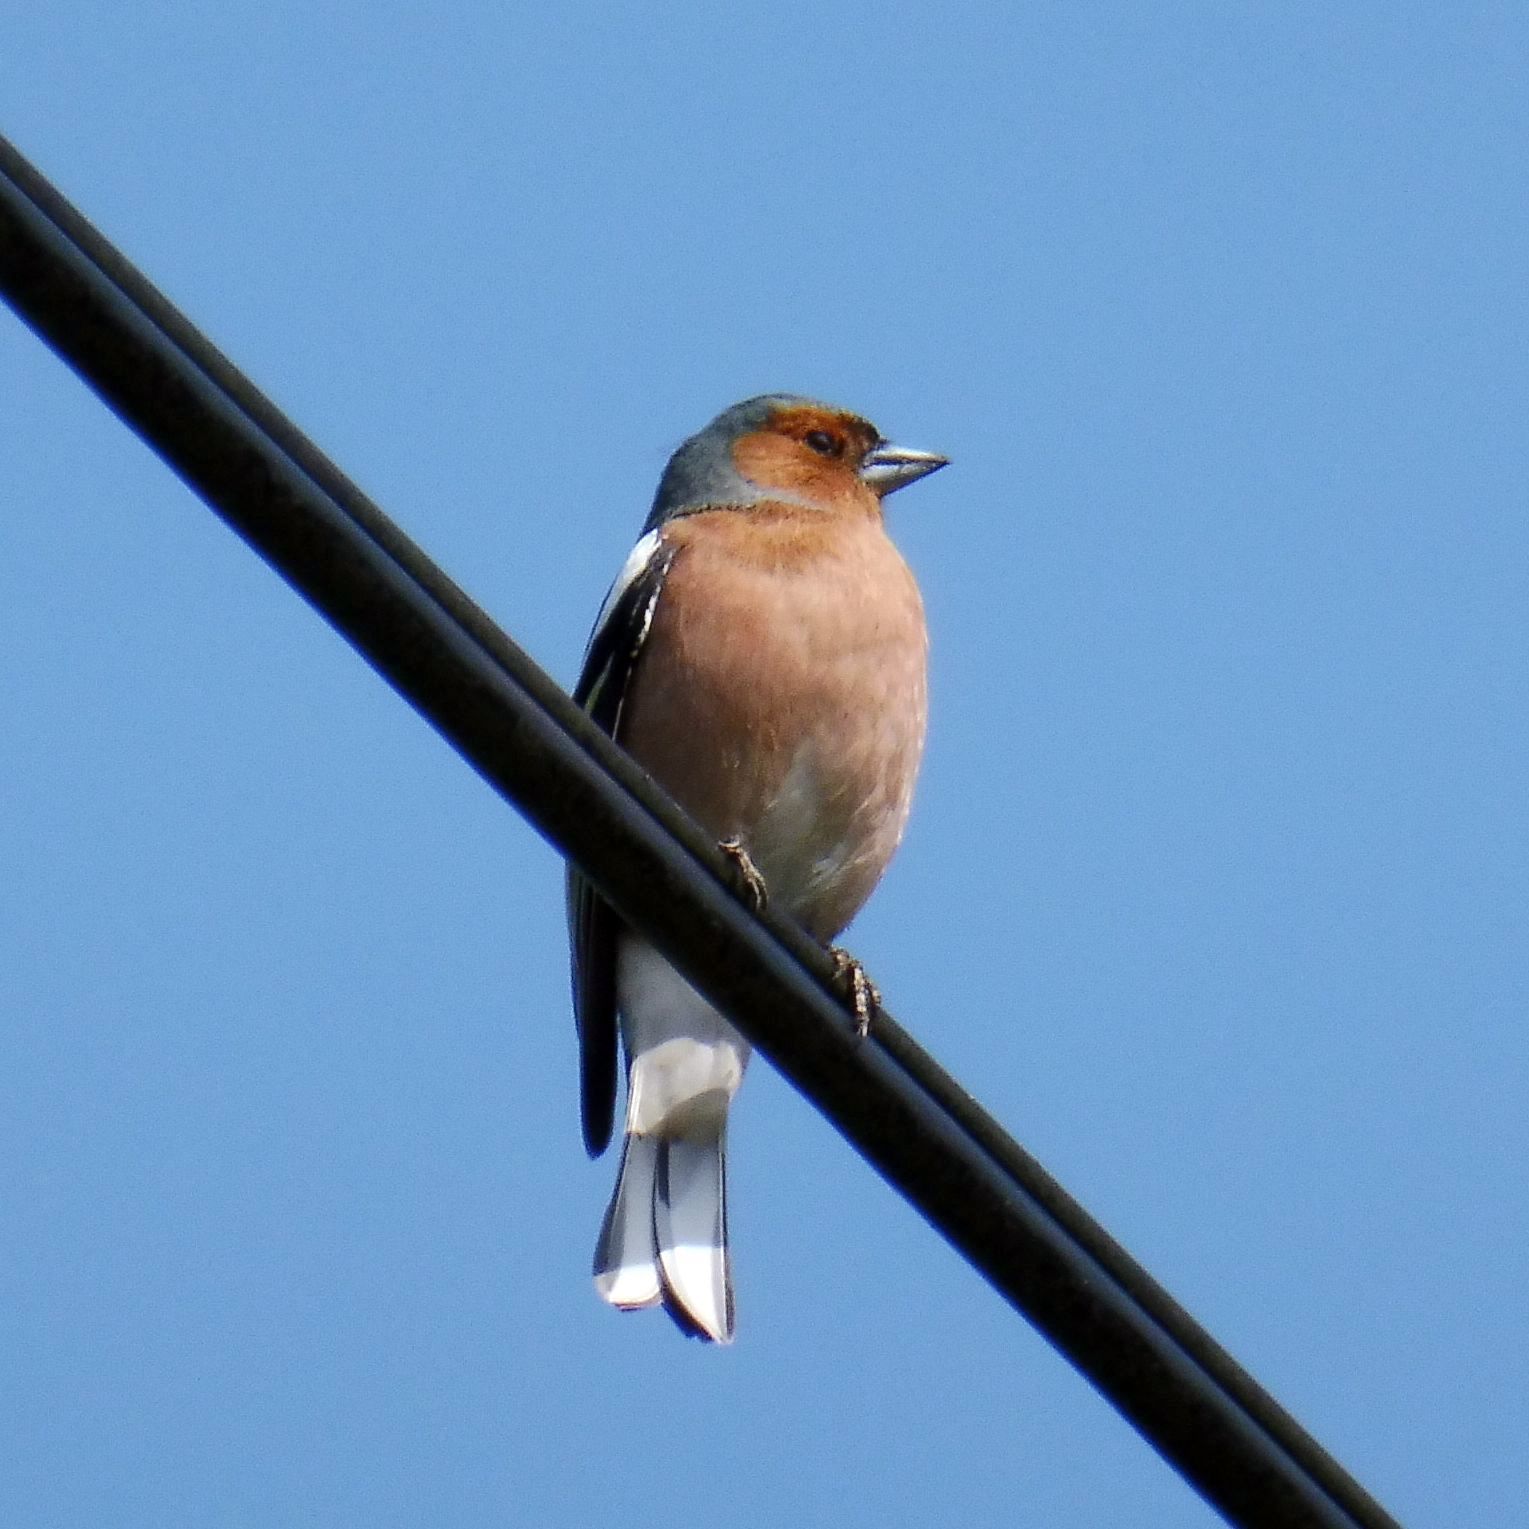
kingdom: Animalia
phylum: Chordata
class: Aves
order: Passeriformes
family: Fringillidae
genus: Fringilla
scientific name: Fringilla coelebs
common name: Common chaffinch
